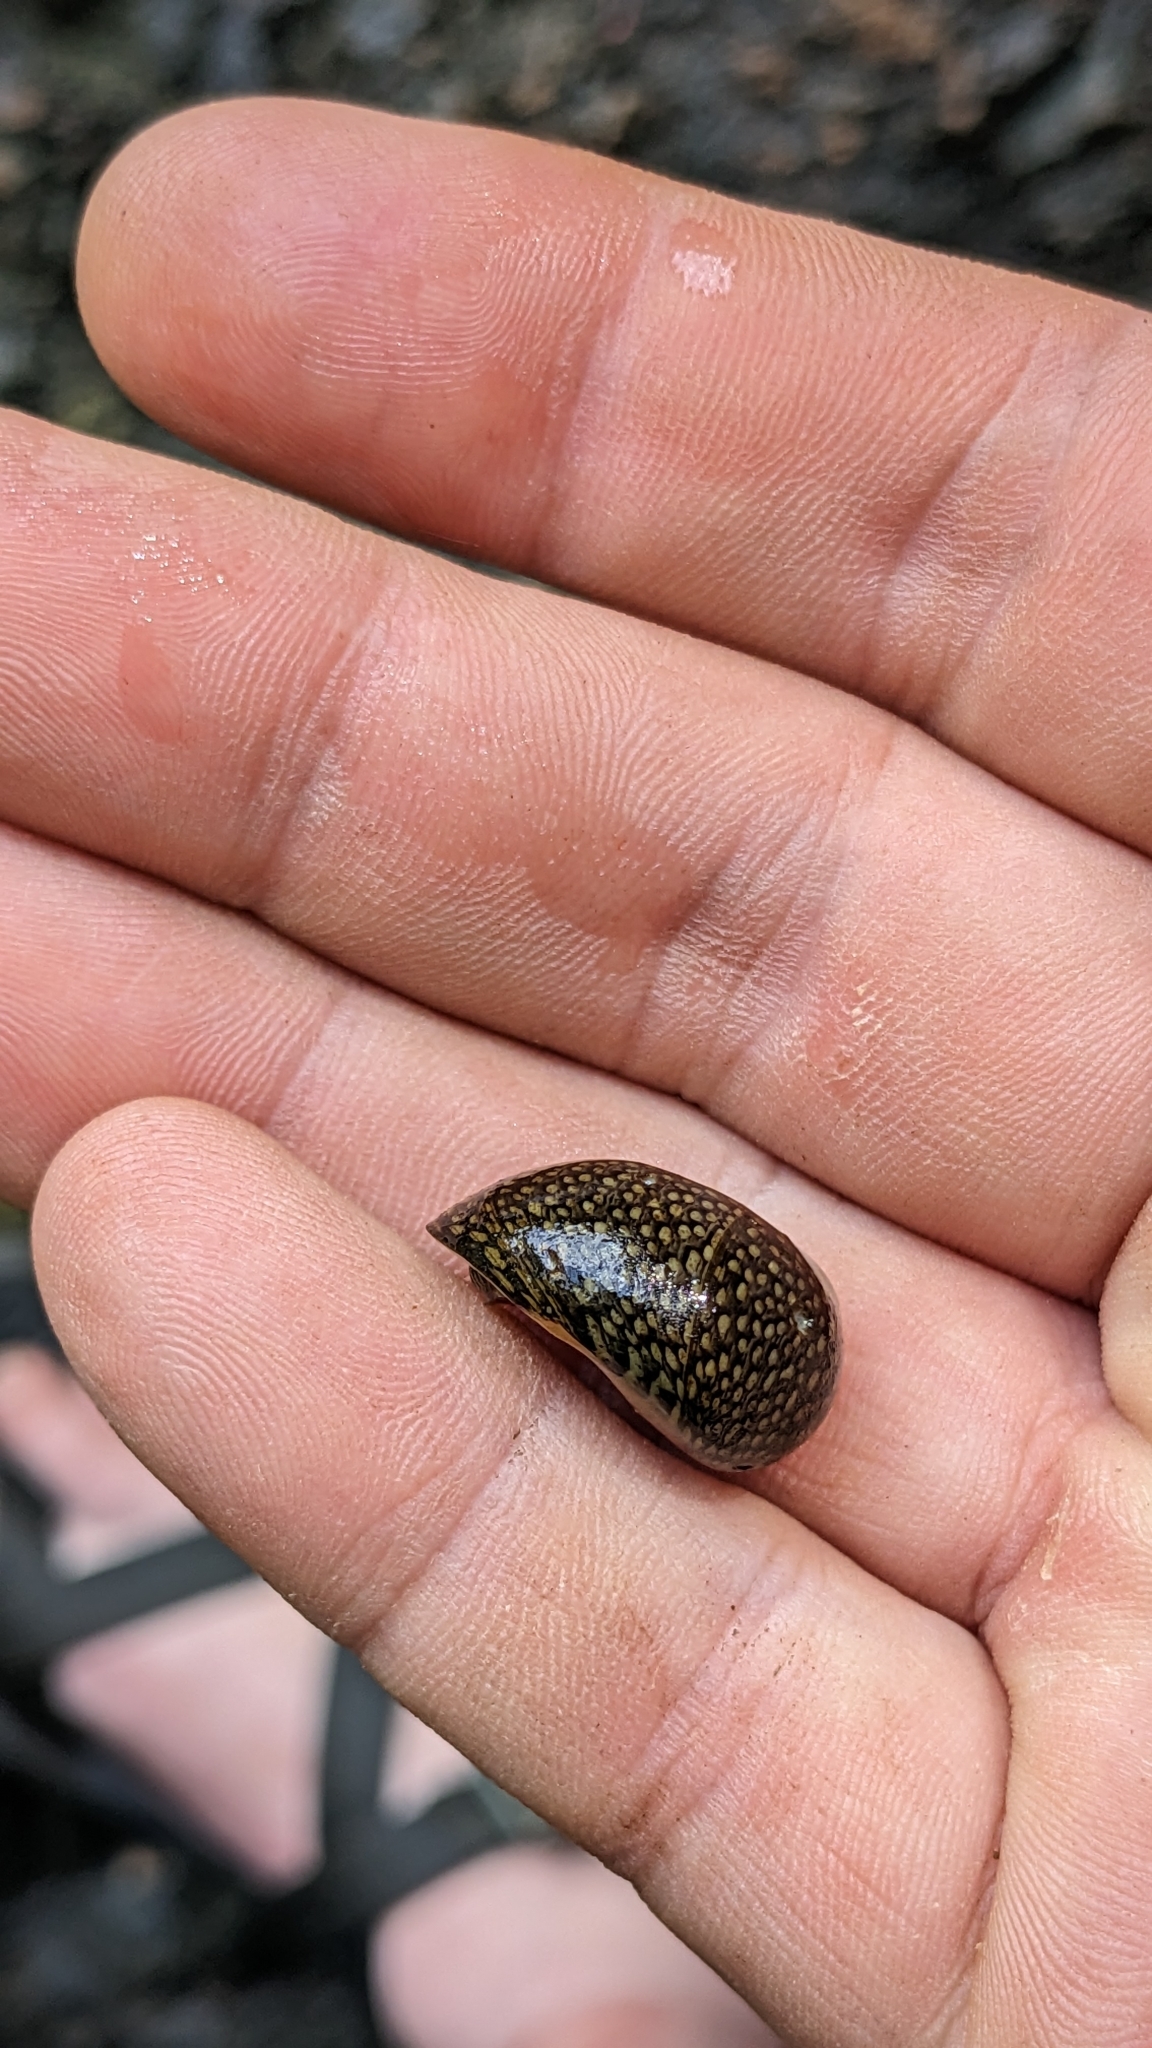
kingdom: Animalia
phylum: Mollusca
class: Gastropoda
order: Cycloneritida
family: Neritidae
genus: Vitta
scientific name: Vitta virginea
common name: Virgin nerite
